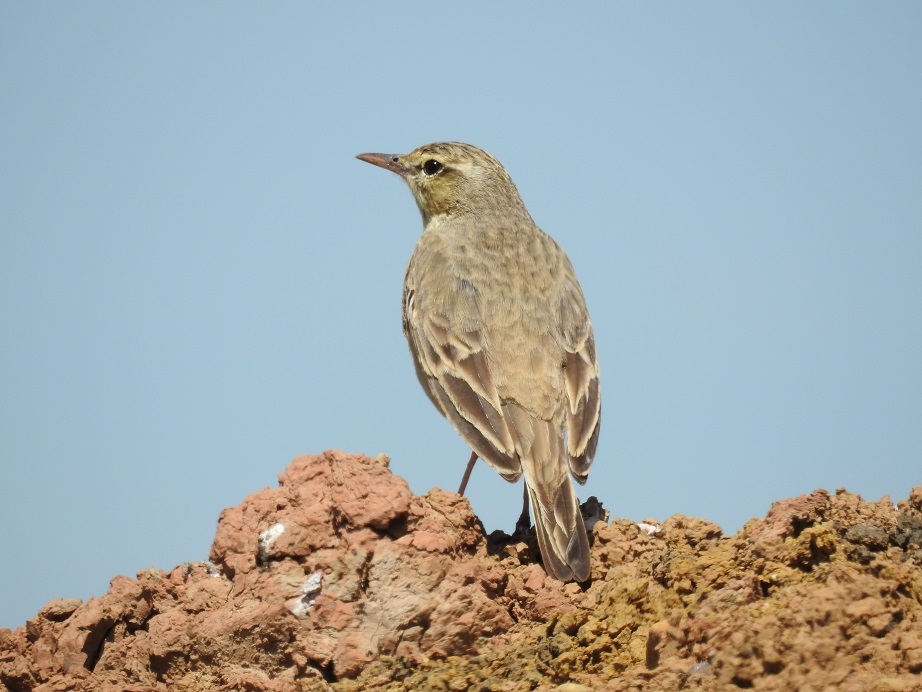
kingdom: Animalia
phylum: Chordata
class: Aves
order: Passeriformes
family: Motacillidae
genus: Anthus
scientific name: Anthus campestris
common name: Tawny pipit
